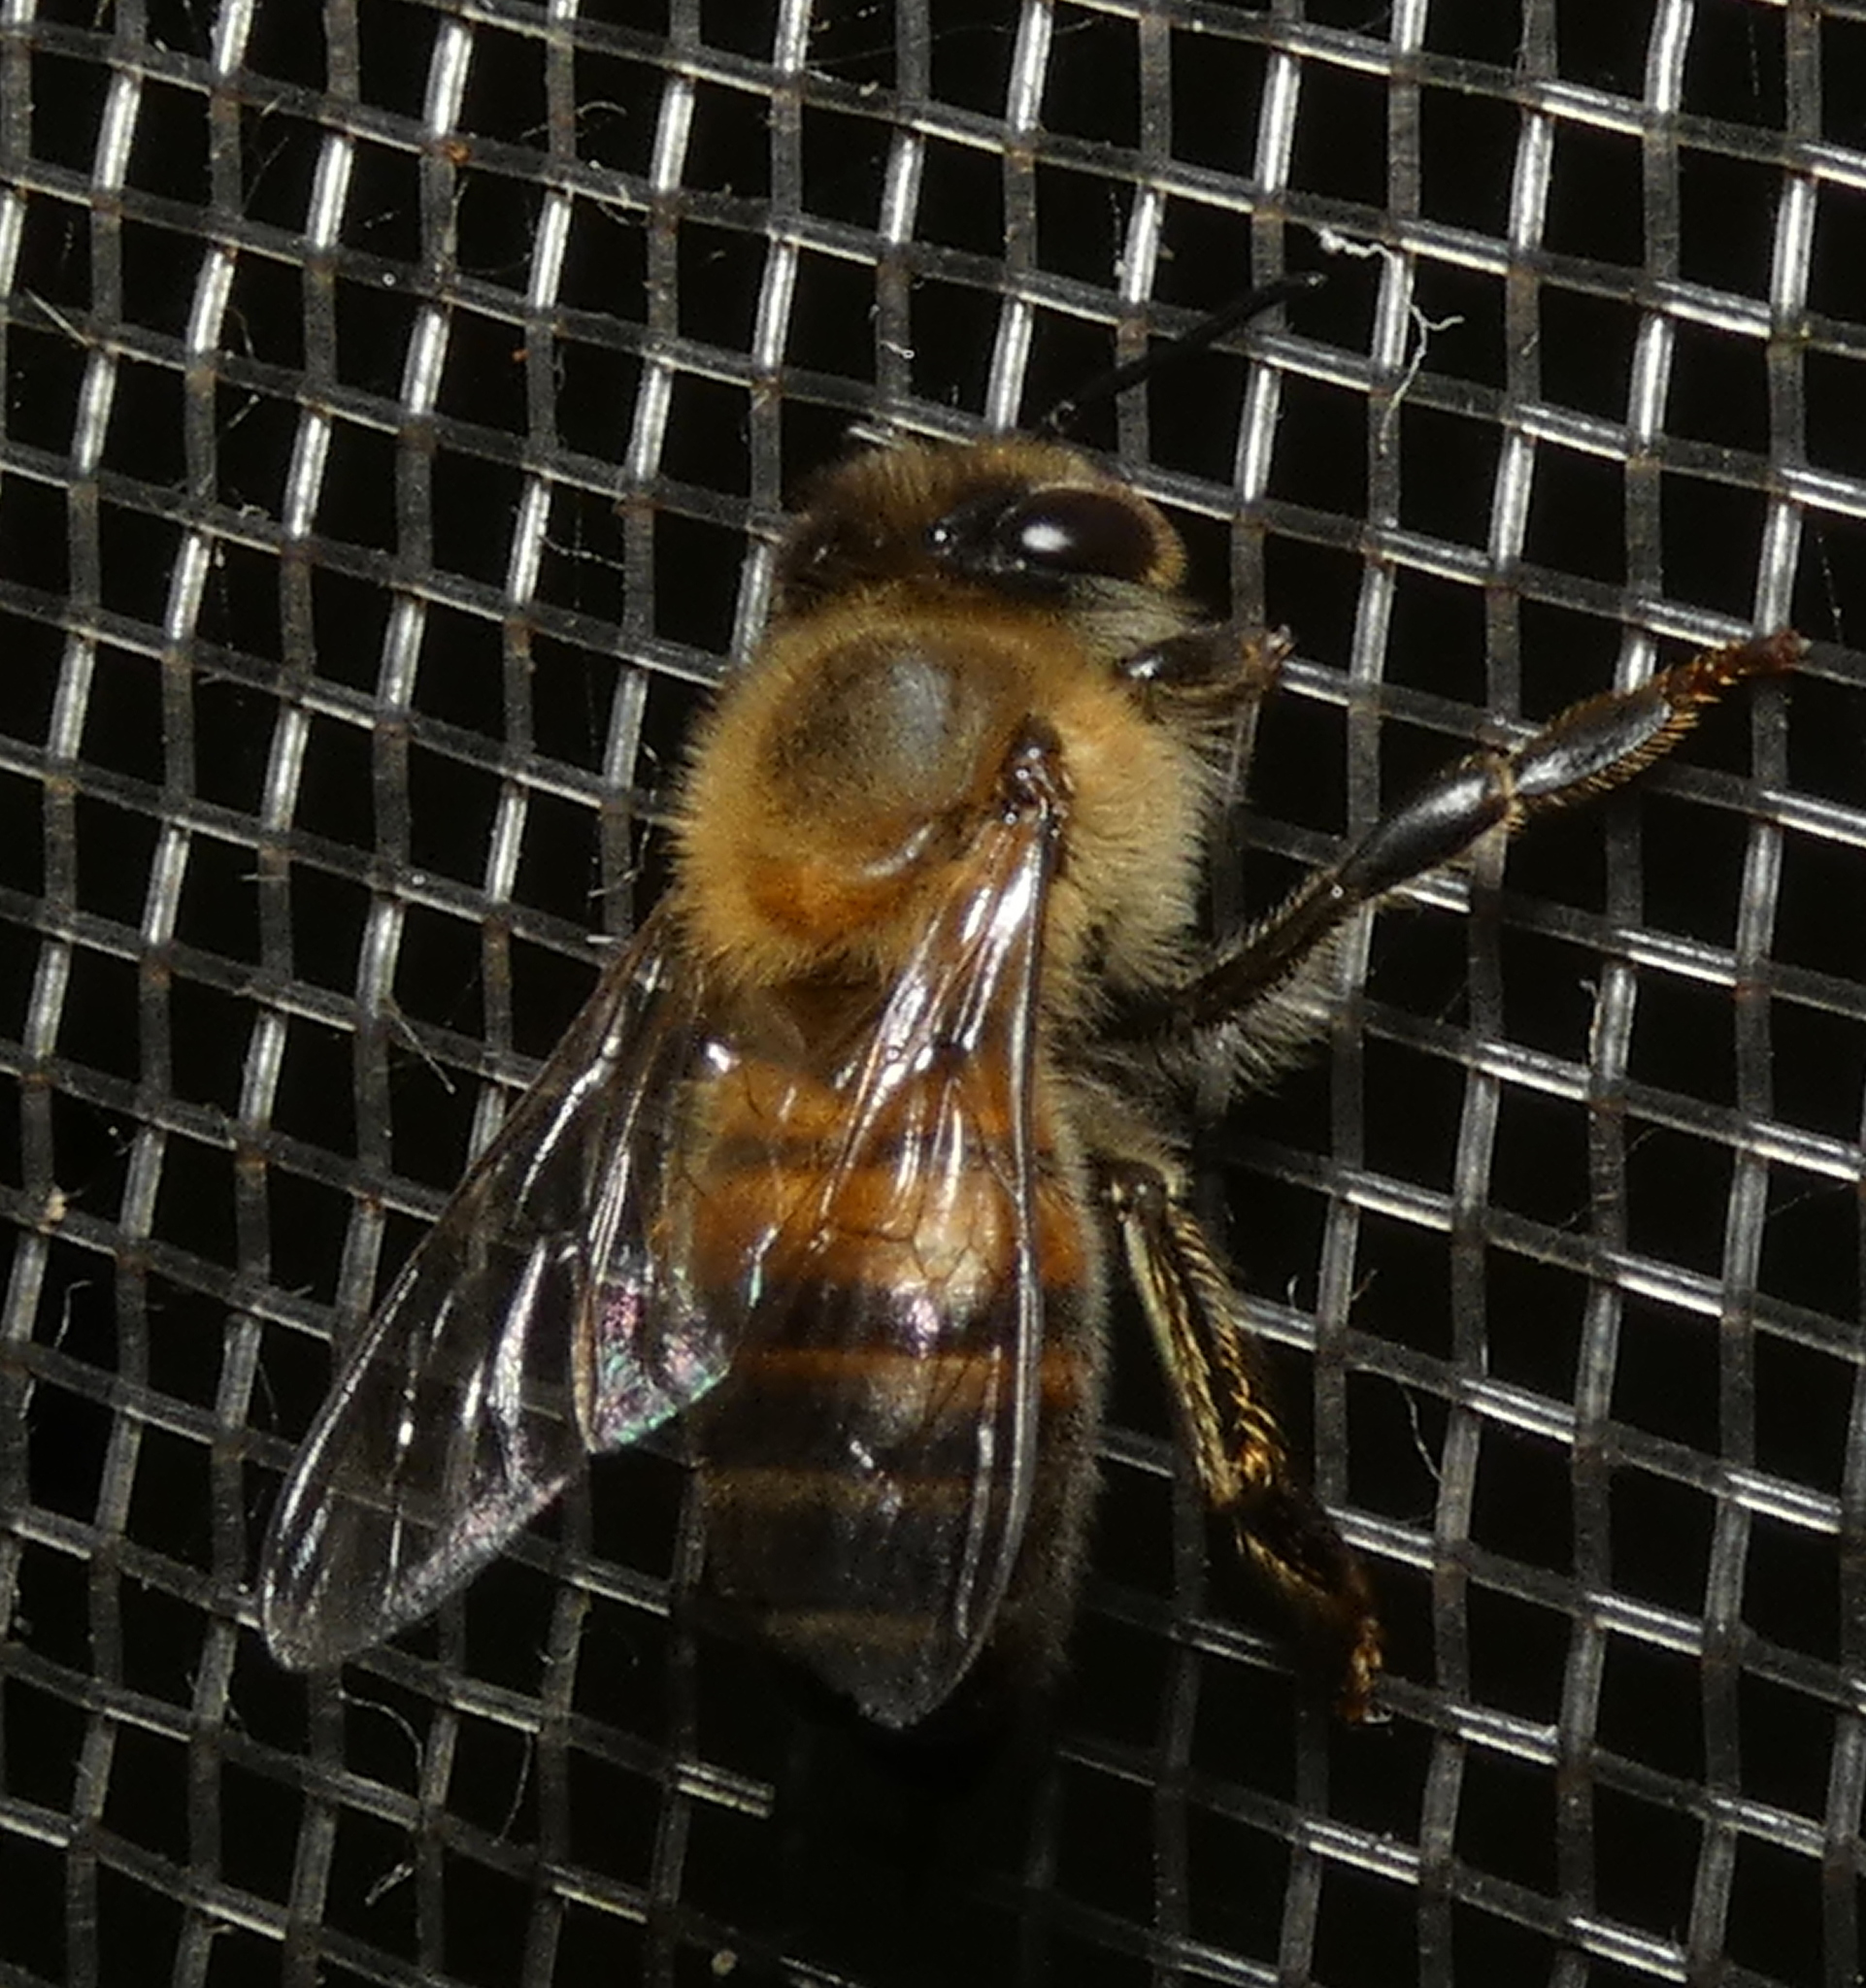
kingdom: Animalia
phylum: Arthropoda
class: Insecta
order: Hymenoptera
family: Apidae
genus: Apis
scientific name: Apis mellifera
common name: Honey bee
